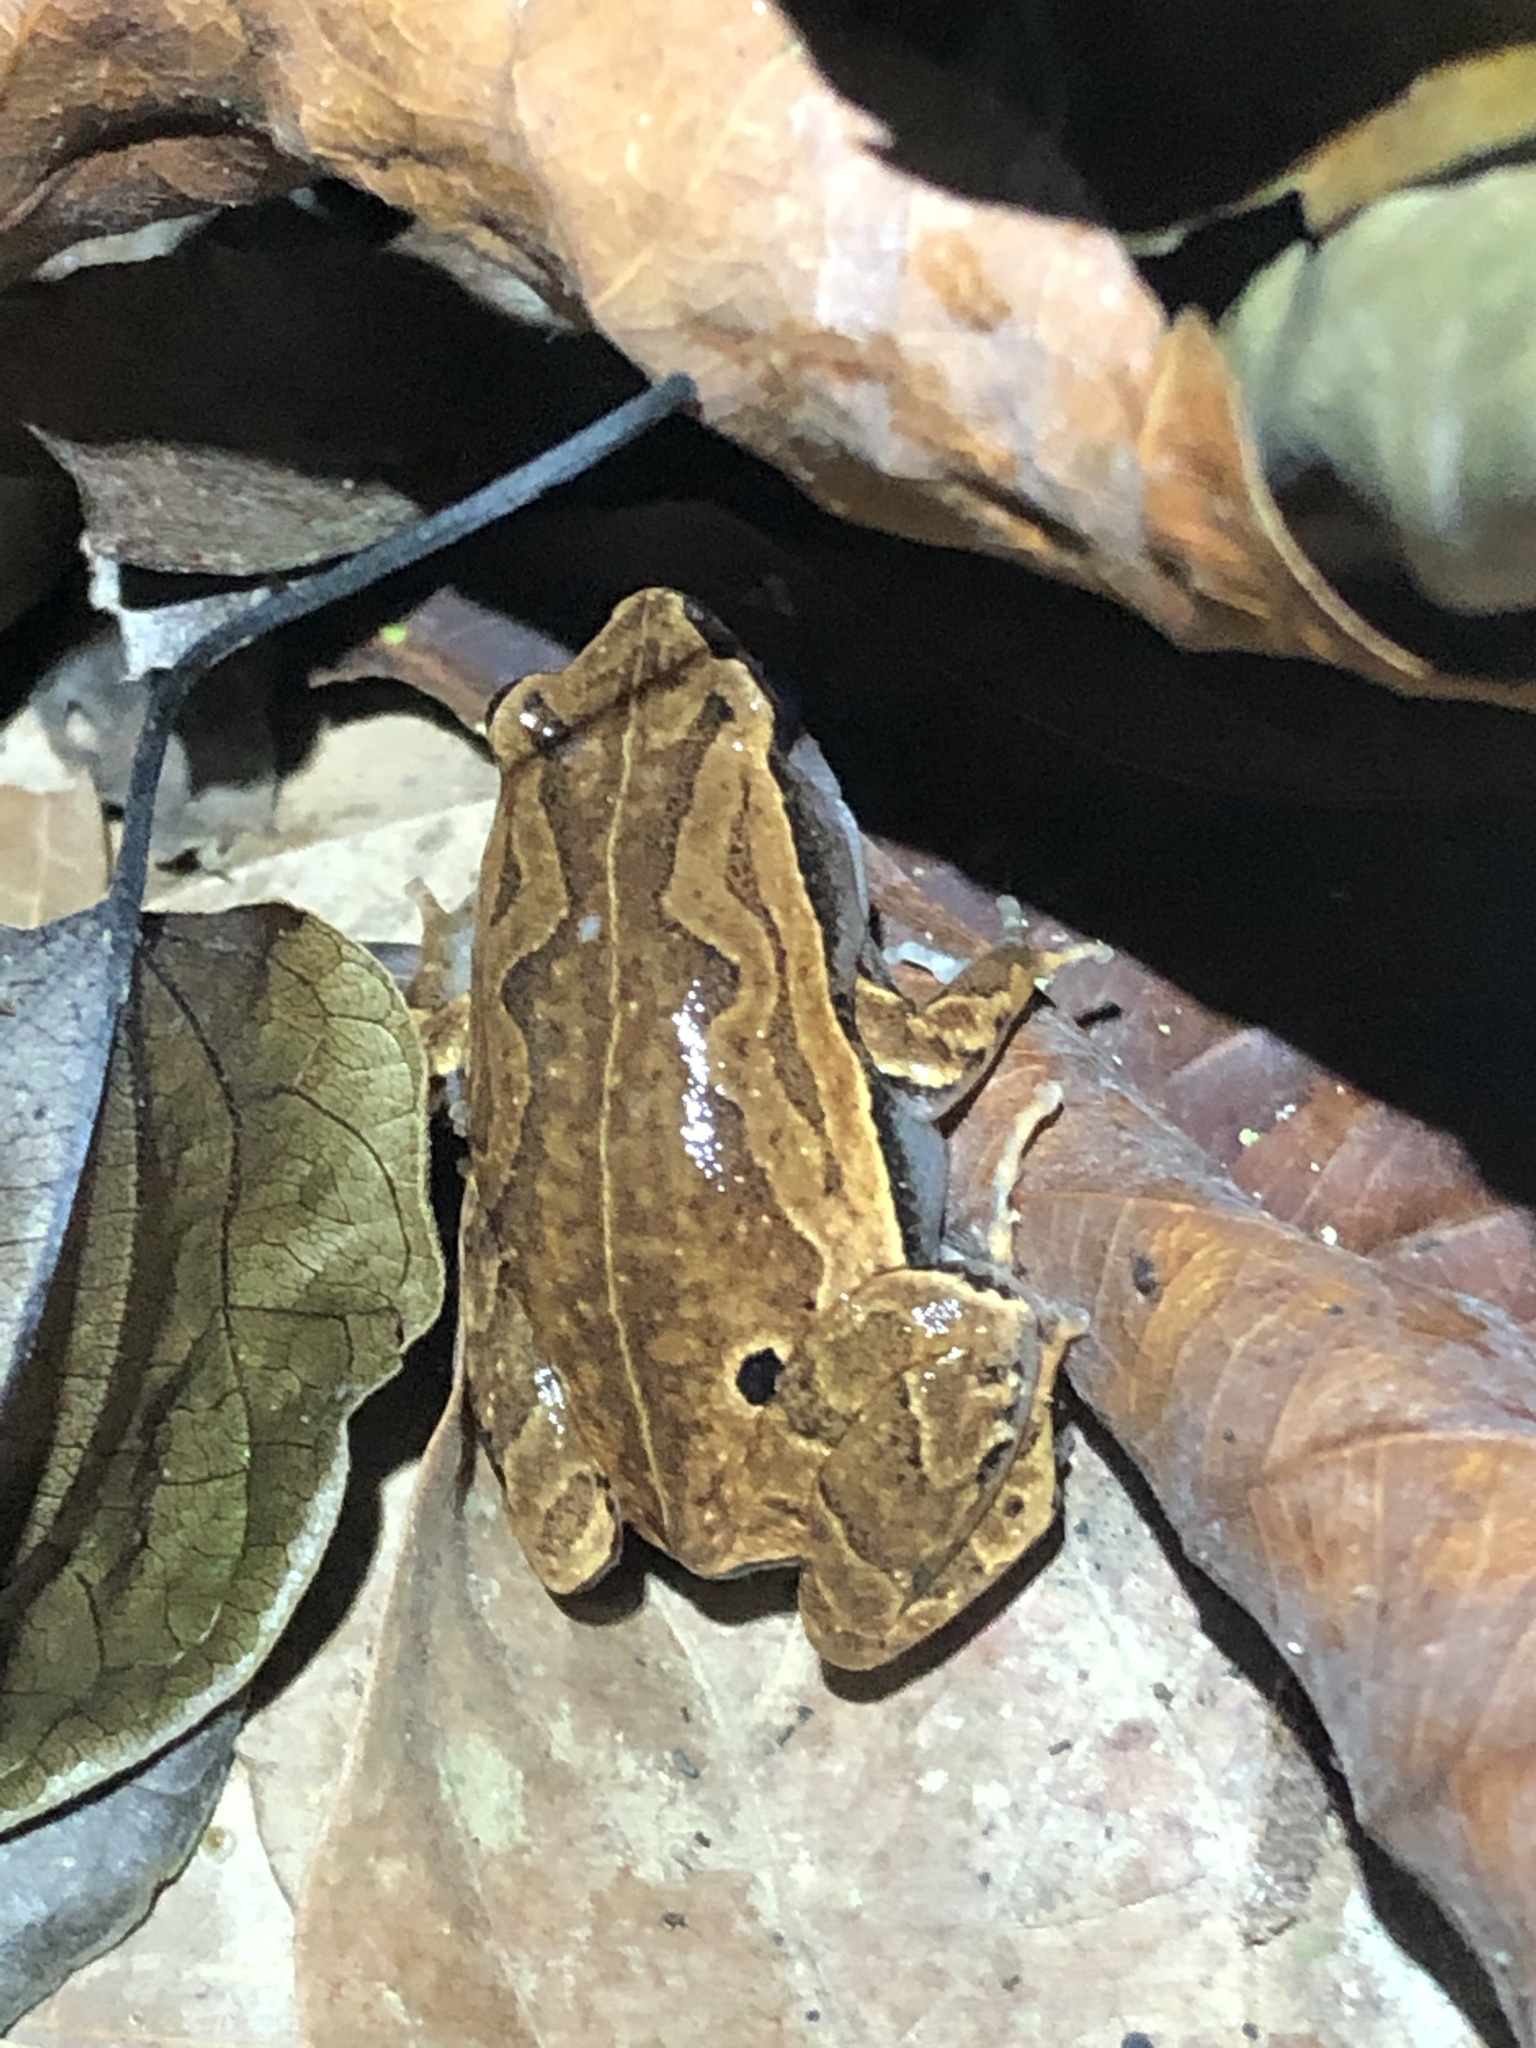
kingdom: Animalia
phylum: Chordata
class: Amphibia
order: Anura
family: Microhylidae
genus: Hamptophryne
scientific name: Hamptophryne boliviana
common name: Bolivian bleating frog
